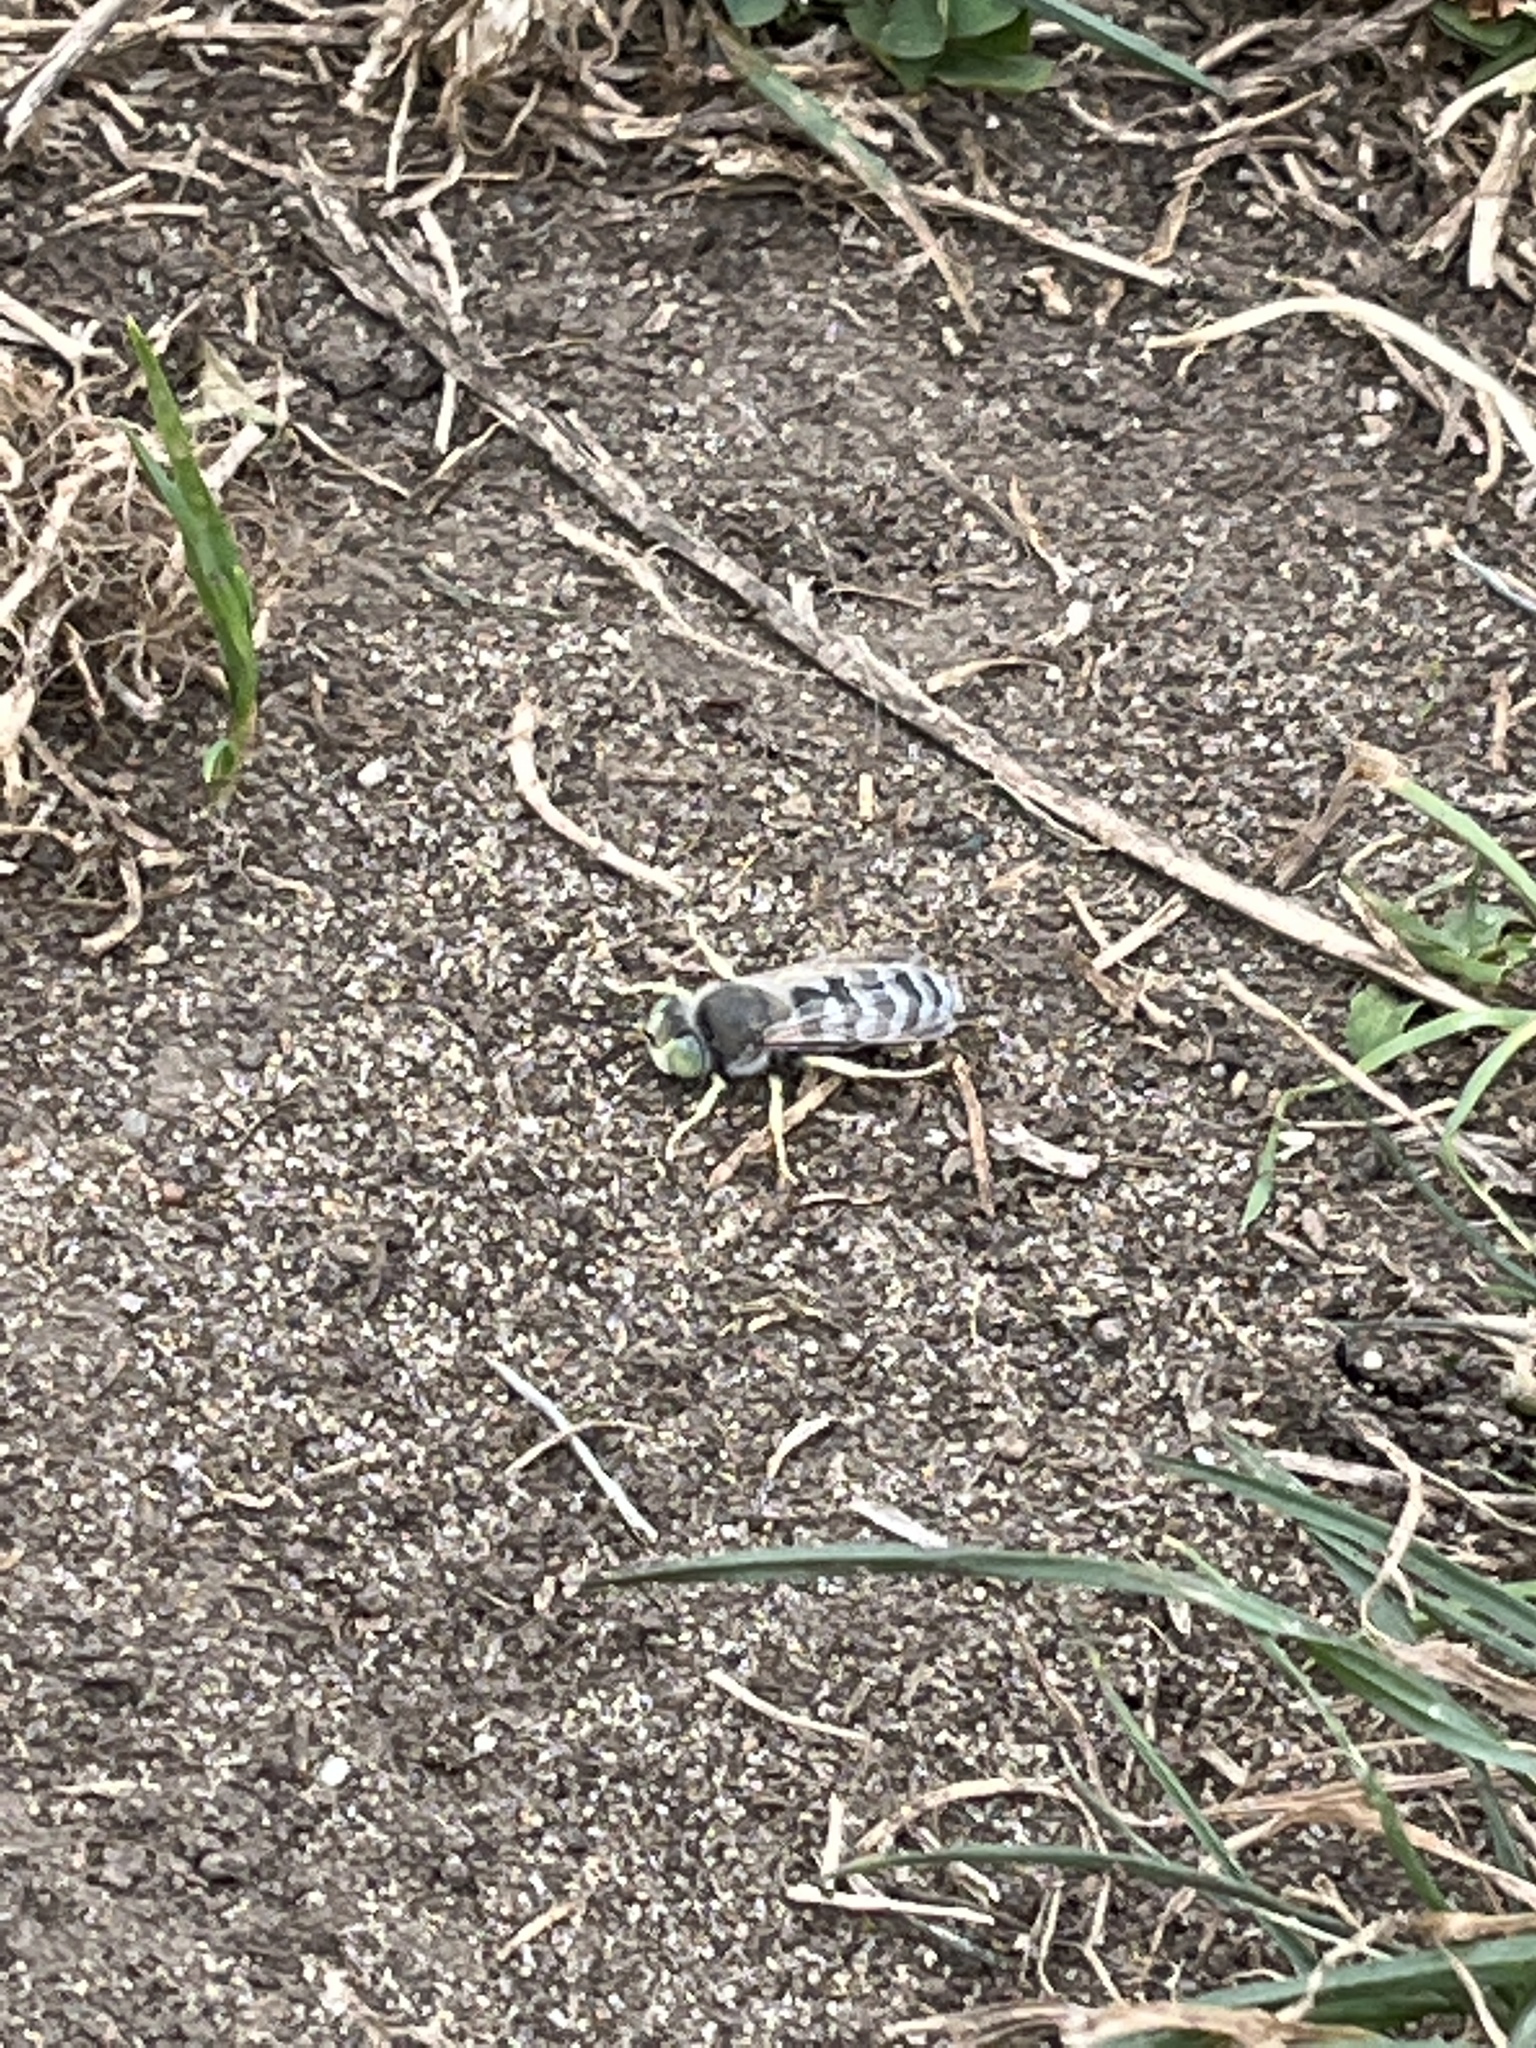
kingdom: Animalia
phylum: Arthropoda
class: Insecta
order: Hymenoptera
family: Crabronidae
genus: Bembix
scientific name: Bembix americana
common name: American sand wasp
